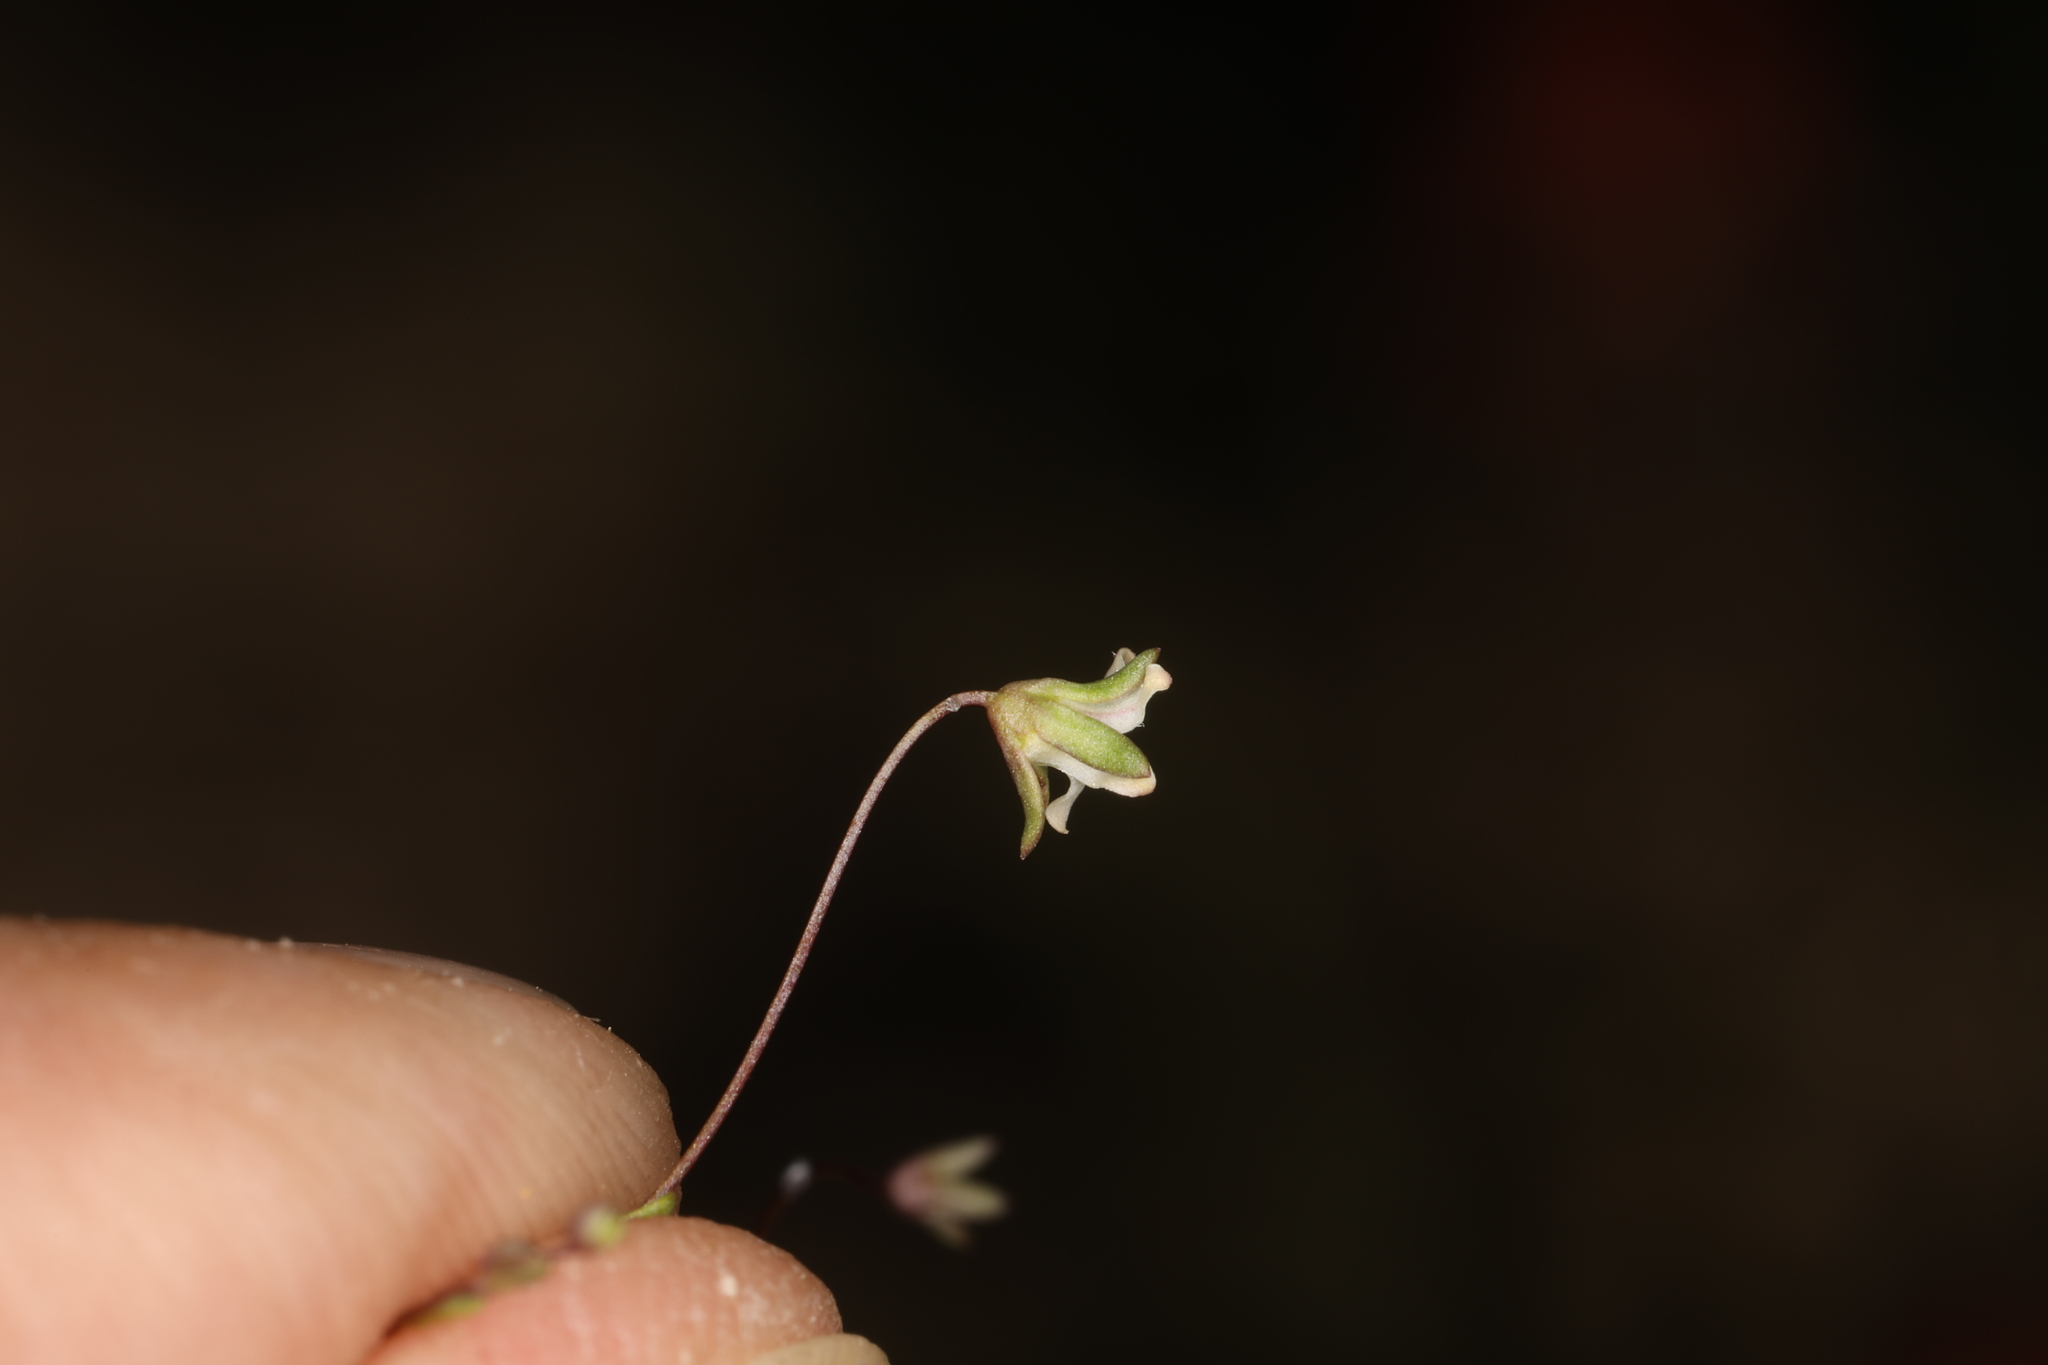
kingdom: Plantae
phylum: Tracheophyta
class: Magnoliopsida
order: Asterales
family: Campanulaceae
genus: Nemacladus
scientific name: Nemacladus inyoensis
